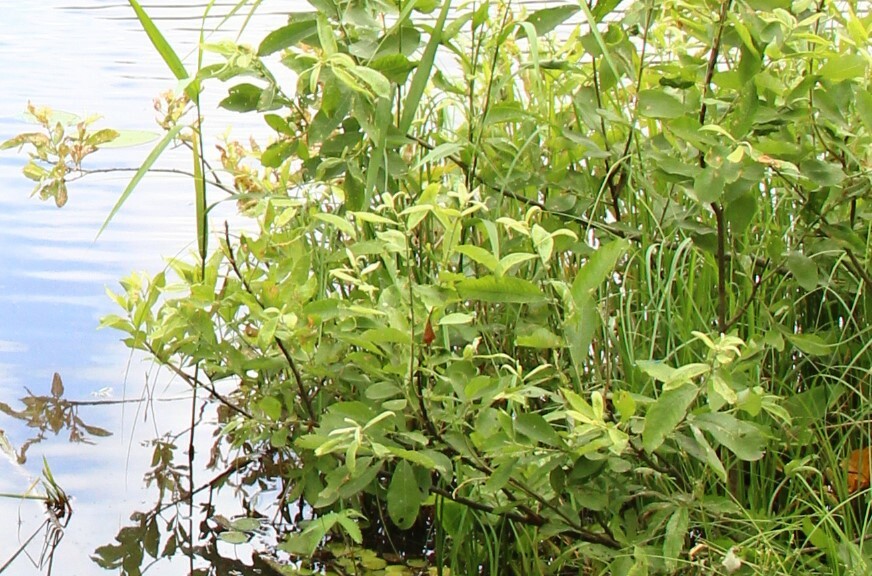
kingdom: Plantae
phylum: Tracheophyta
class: Magnoliopsida
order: Malpighiales
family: Salicaceae
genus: Salix
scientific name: Salix cinerea
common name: Common sallow
